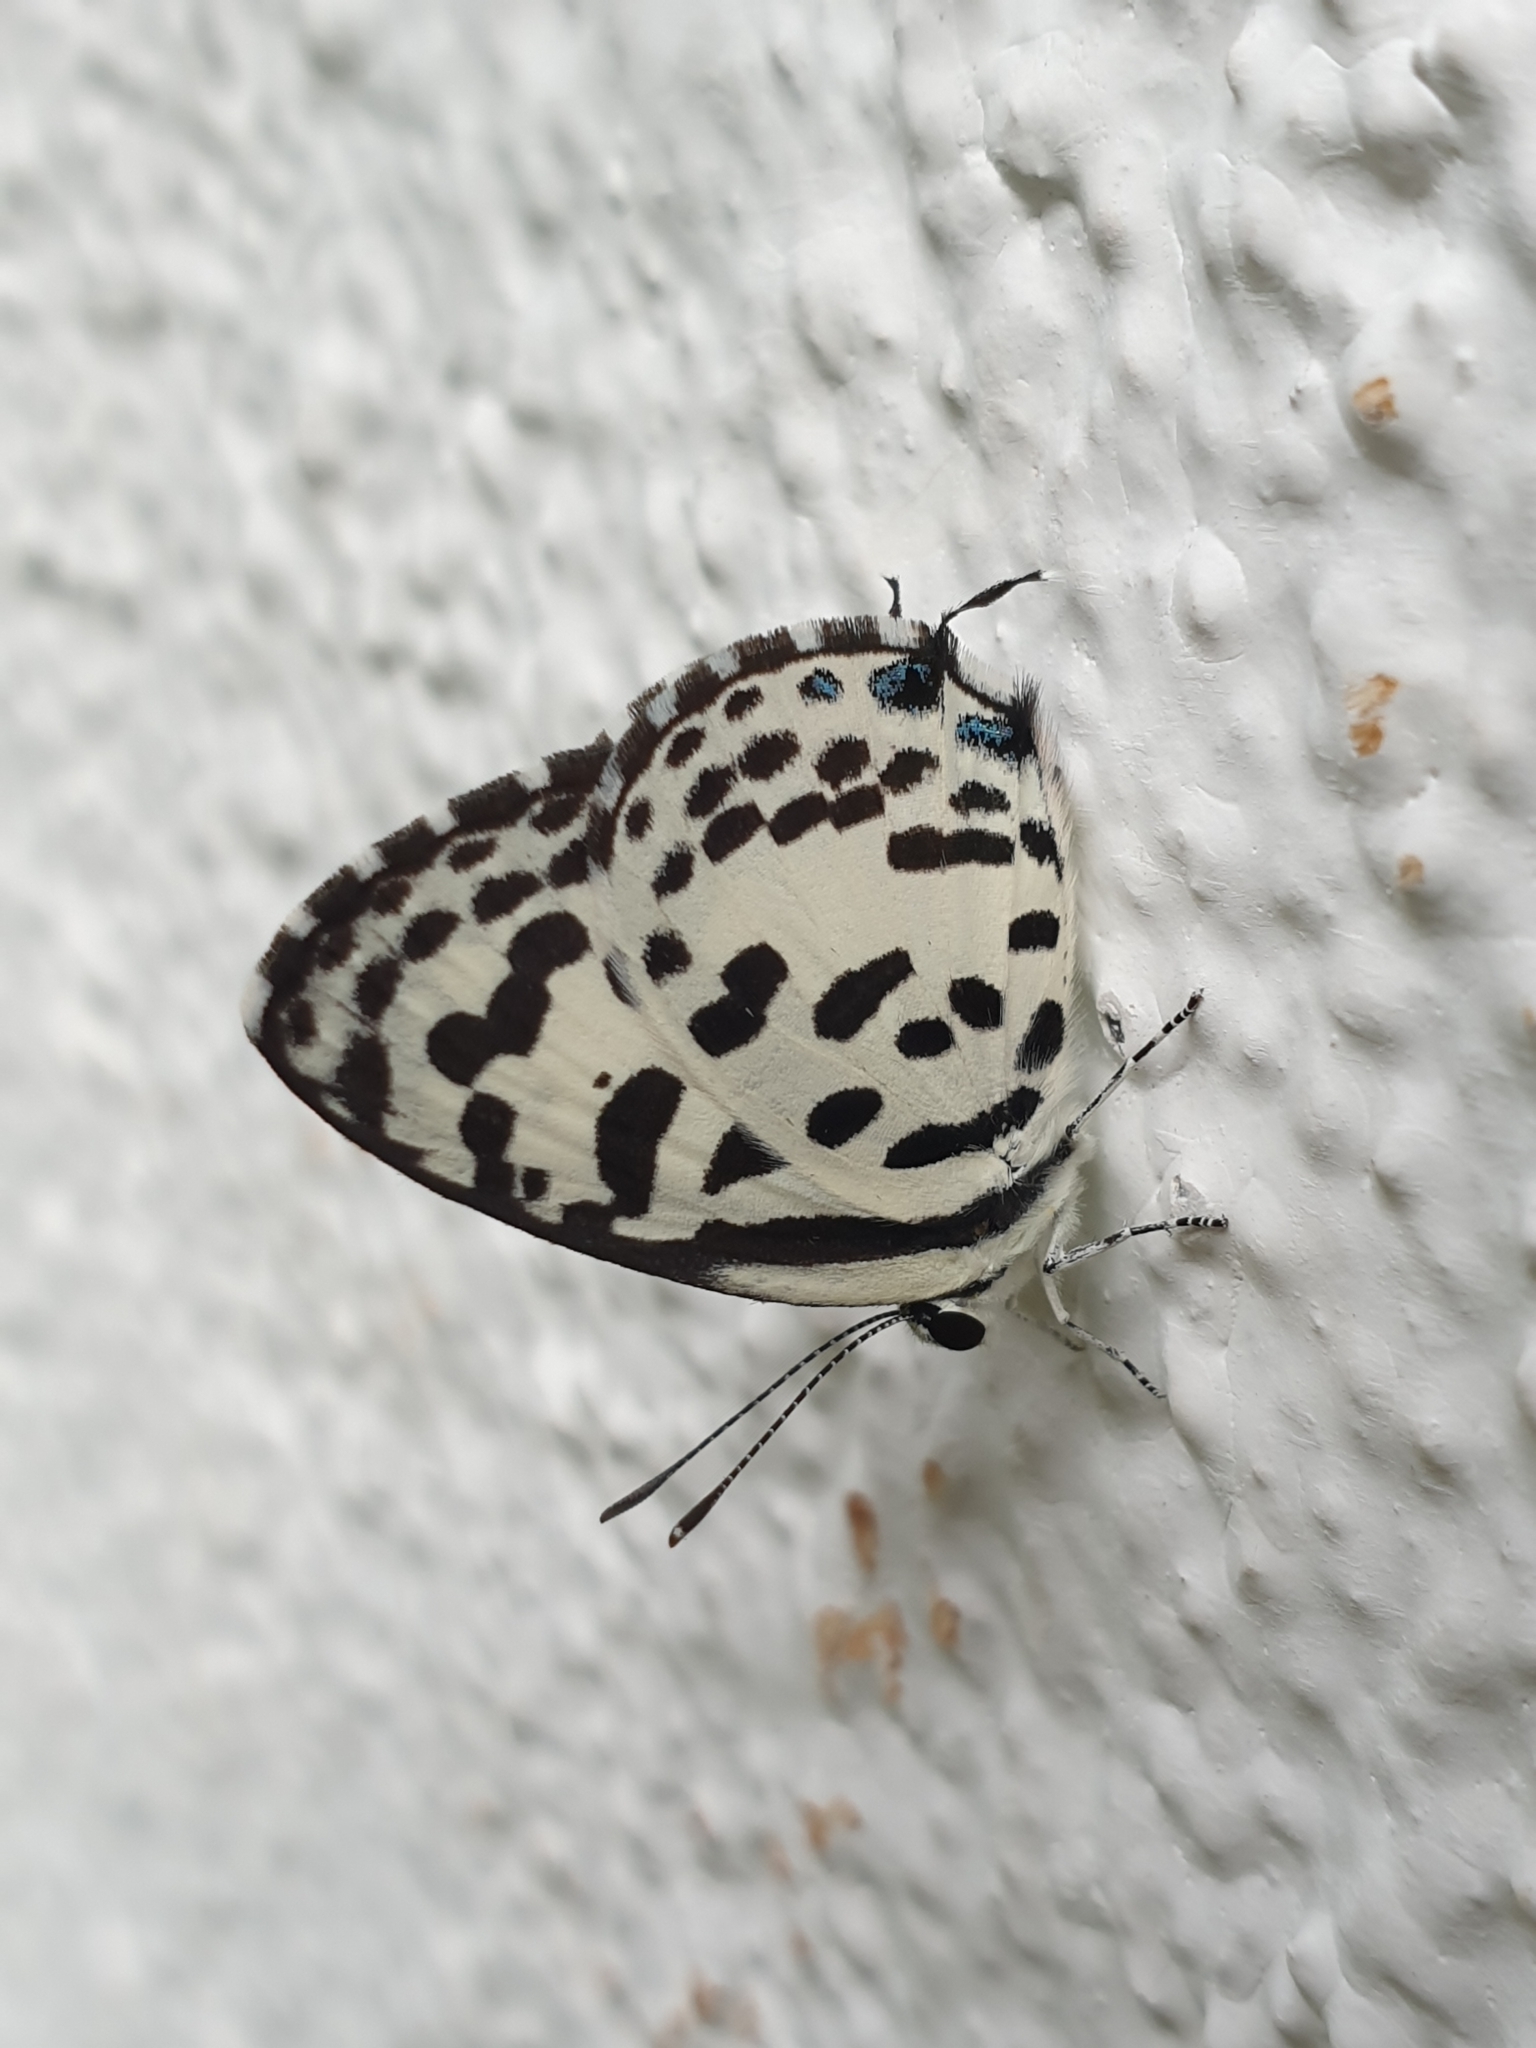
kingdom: Animalia
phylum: Arthropoda
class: Insecta
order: Lepidoptera
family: Lycaenidae
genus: Castalius
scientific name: Castalius rosimon
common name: Common pierrot
